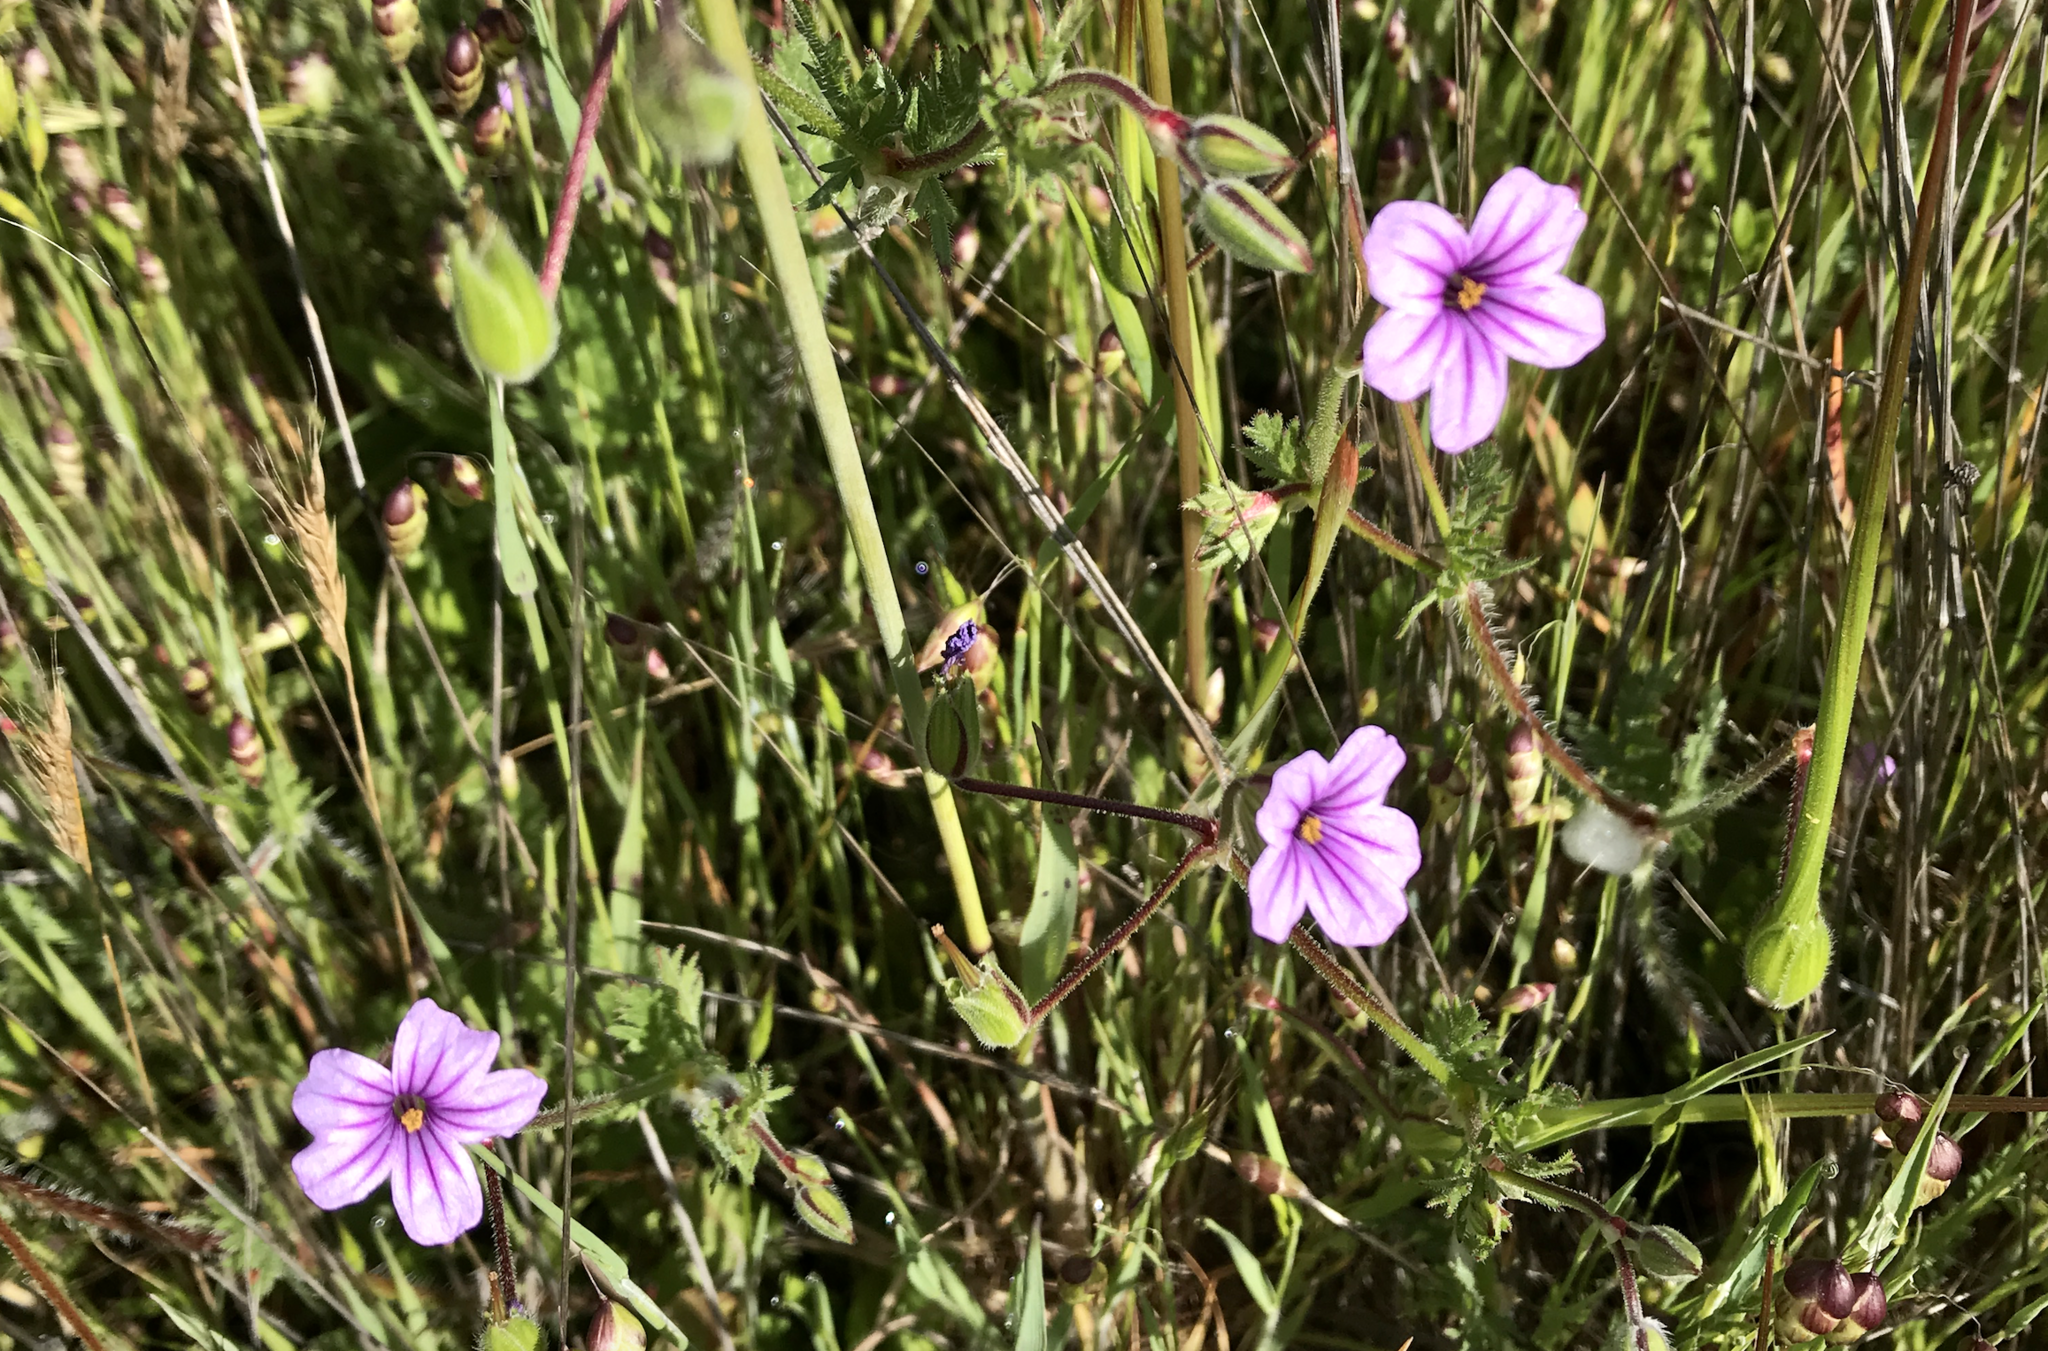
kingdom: Plantae
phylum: Tracheophyta
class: Magnoliopsida
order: Geraniales
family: Geraniaceae
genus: Erodium
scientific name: Erodium botrys
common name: Mediterranean stork's-bill
